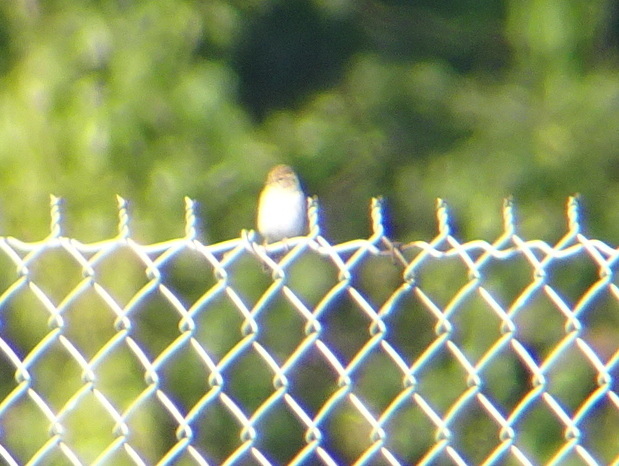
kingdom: Animalia
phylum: Chordata
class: Aves
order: Passeriformes
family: Passerellidae
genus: Spizella
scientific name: Spizella passerina
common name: Chipping sparrow
